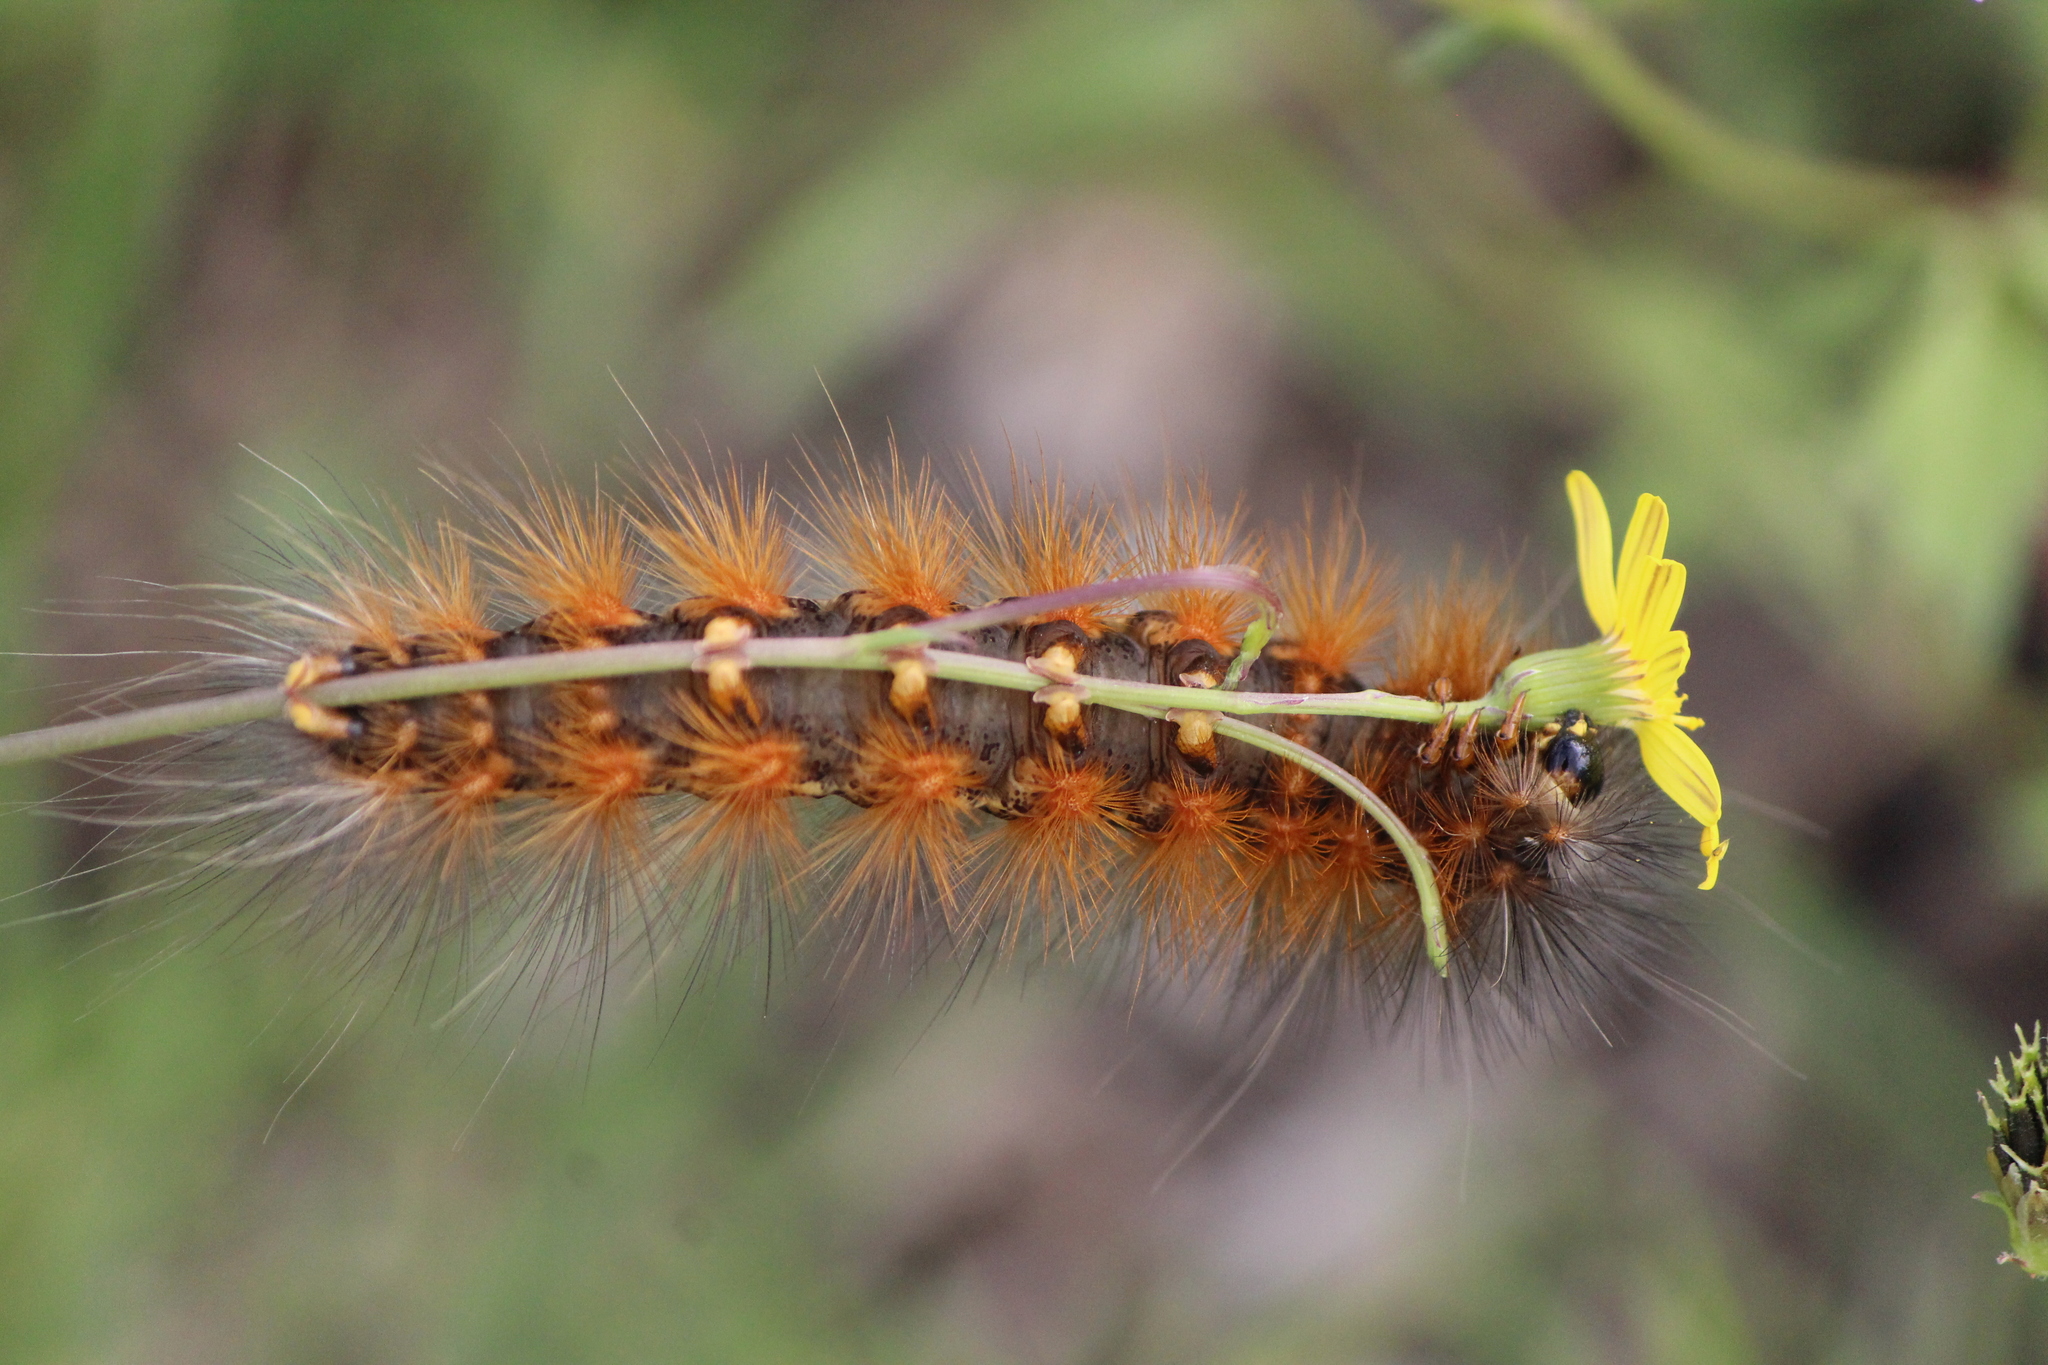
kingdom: Animalia
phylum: Arthropoda
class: Insecta
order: Lepidoptera
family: Erebidae
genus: Estigmene
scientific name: Estigmene acrea
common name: Salt marsh moth
